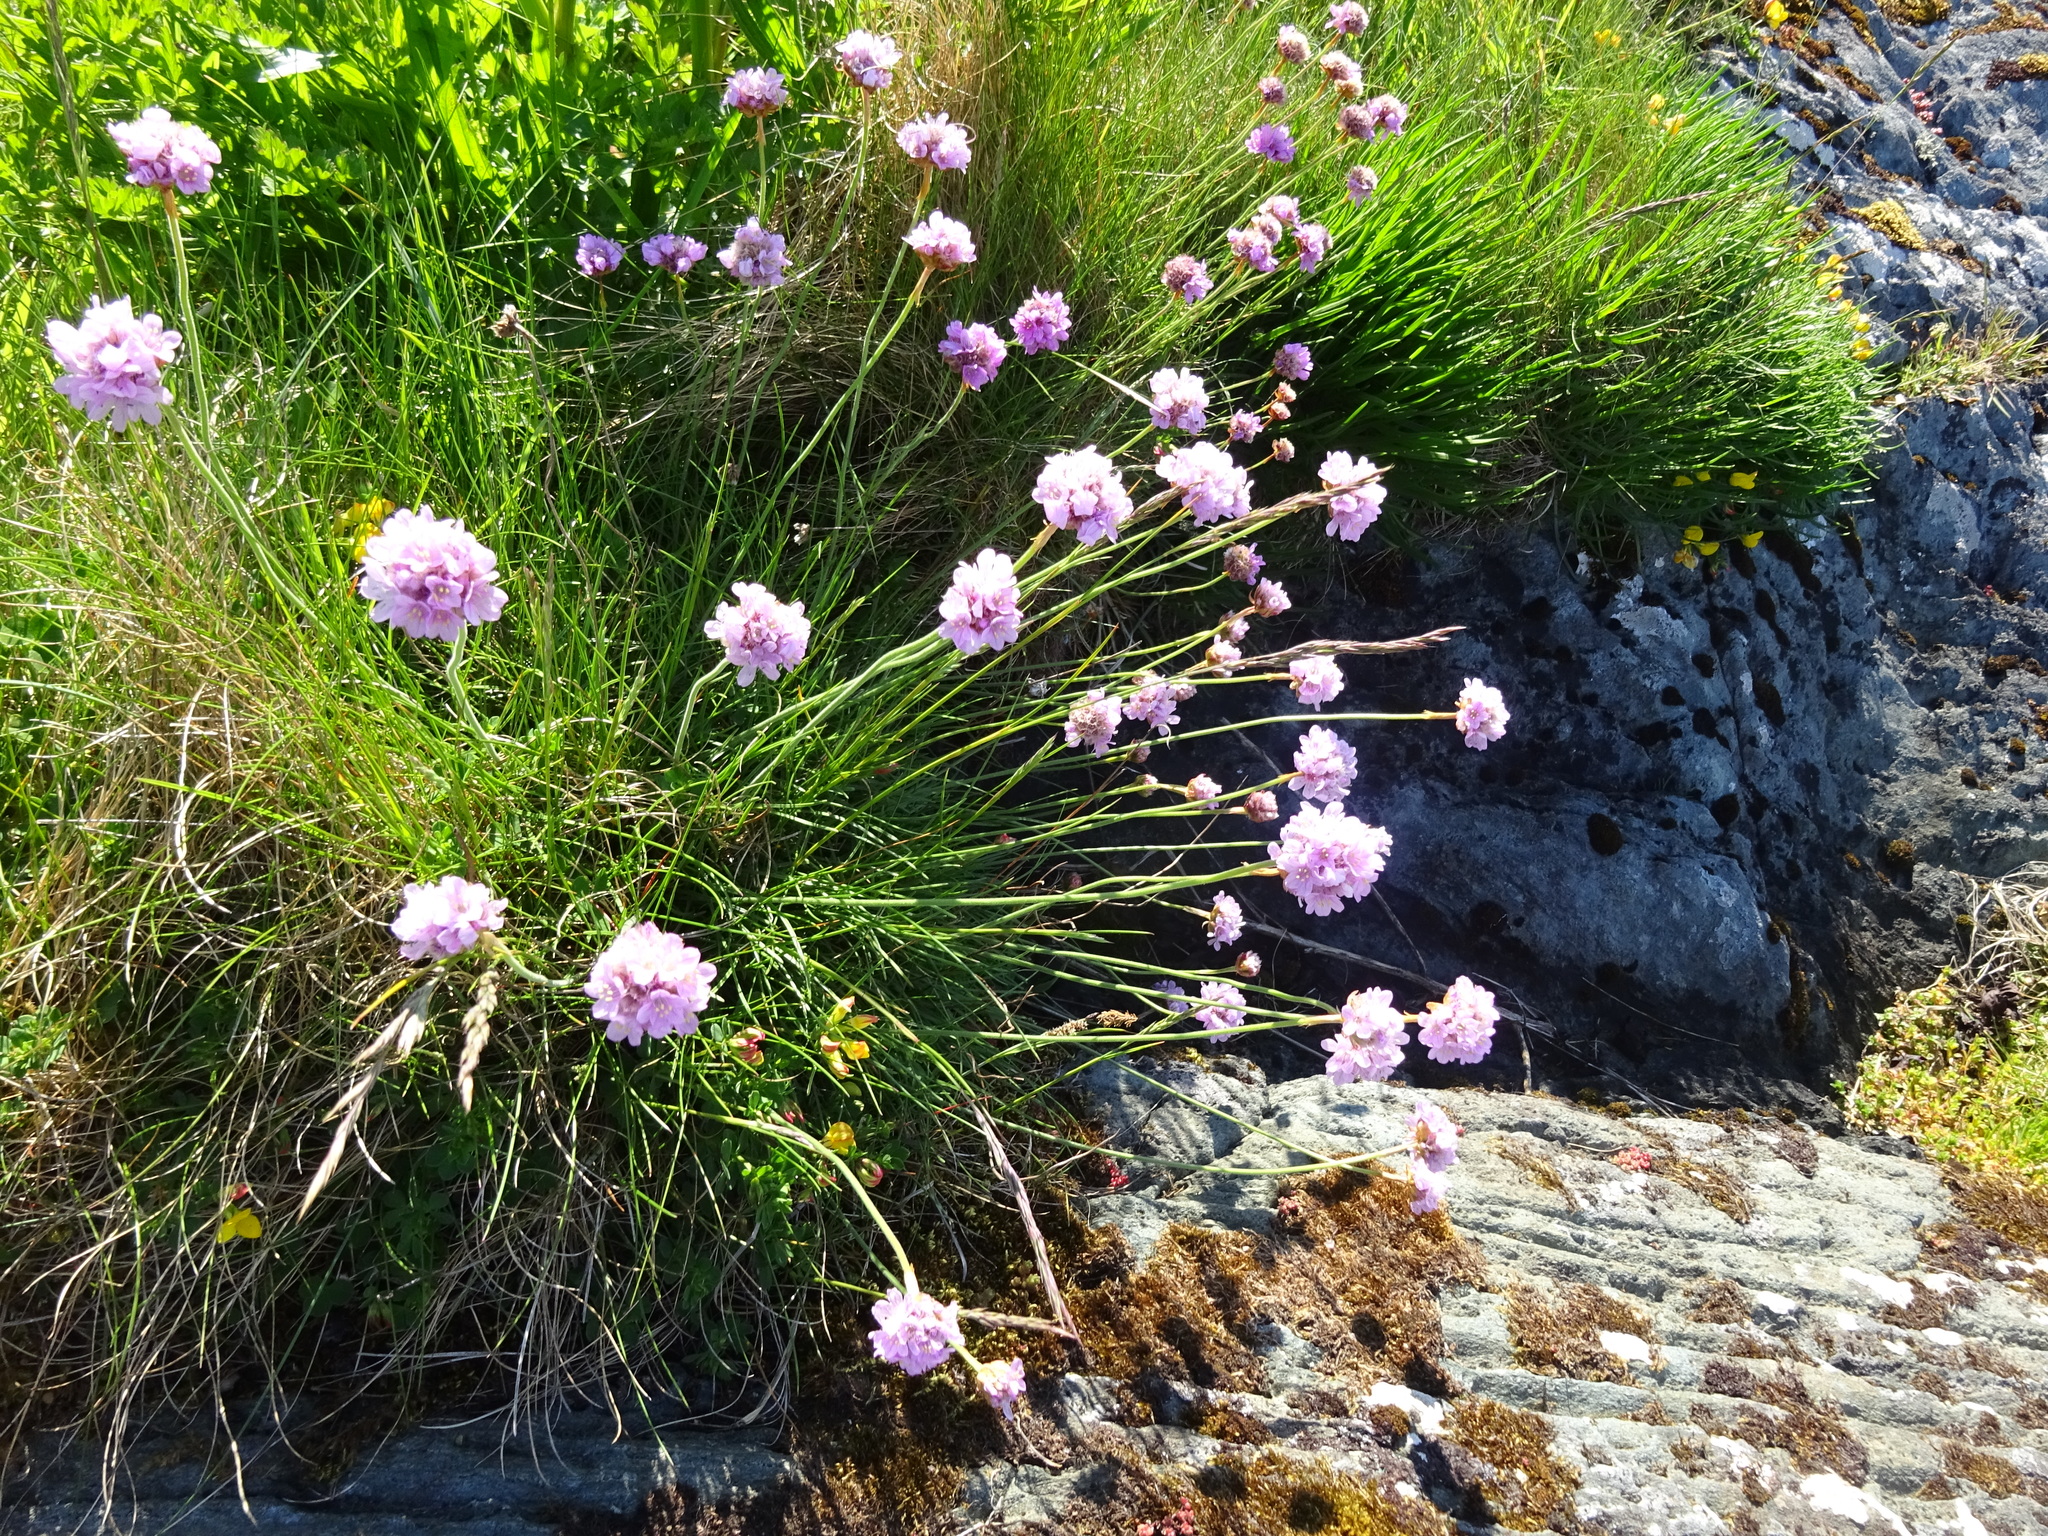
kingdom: Plantae
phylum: Tracheophyta
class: Magnoliopsida
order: Caryophyllales
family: Plumbaginaceae
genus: Armeria
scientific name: Armeria maritima
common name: Thrift
